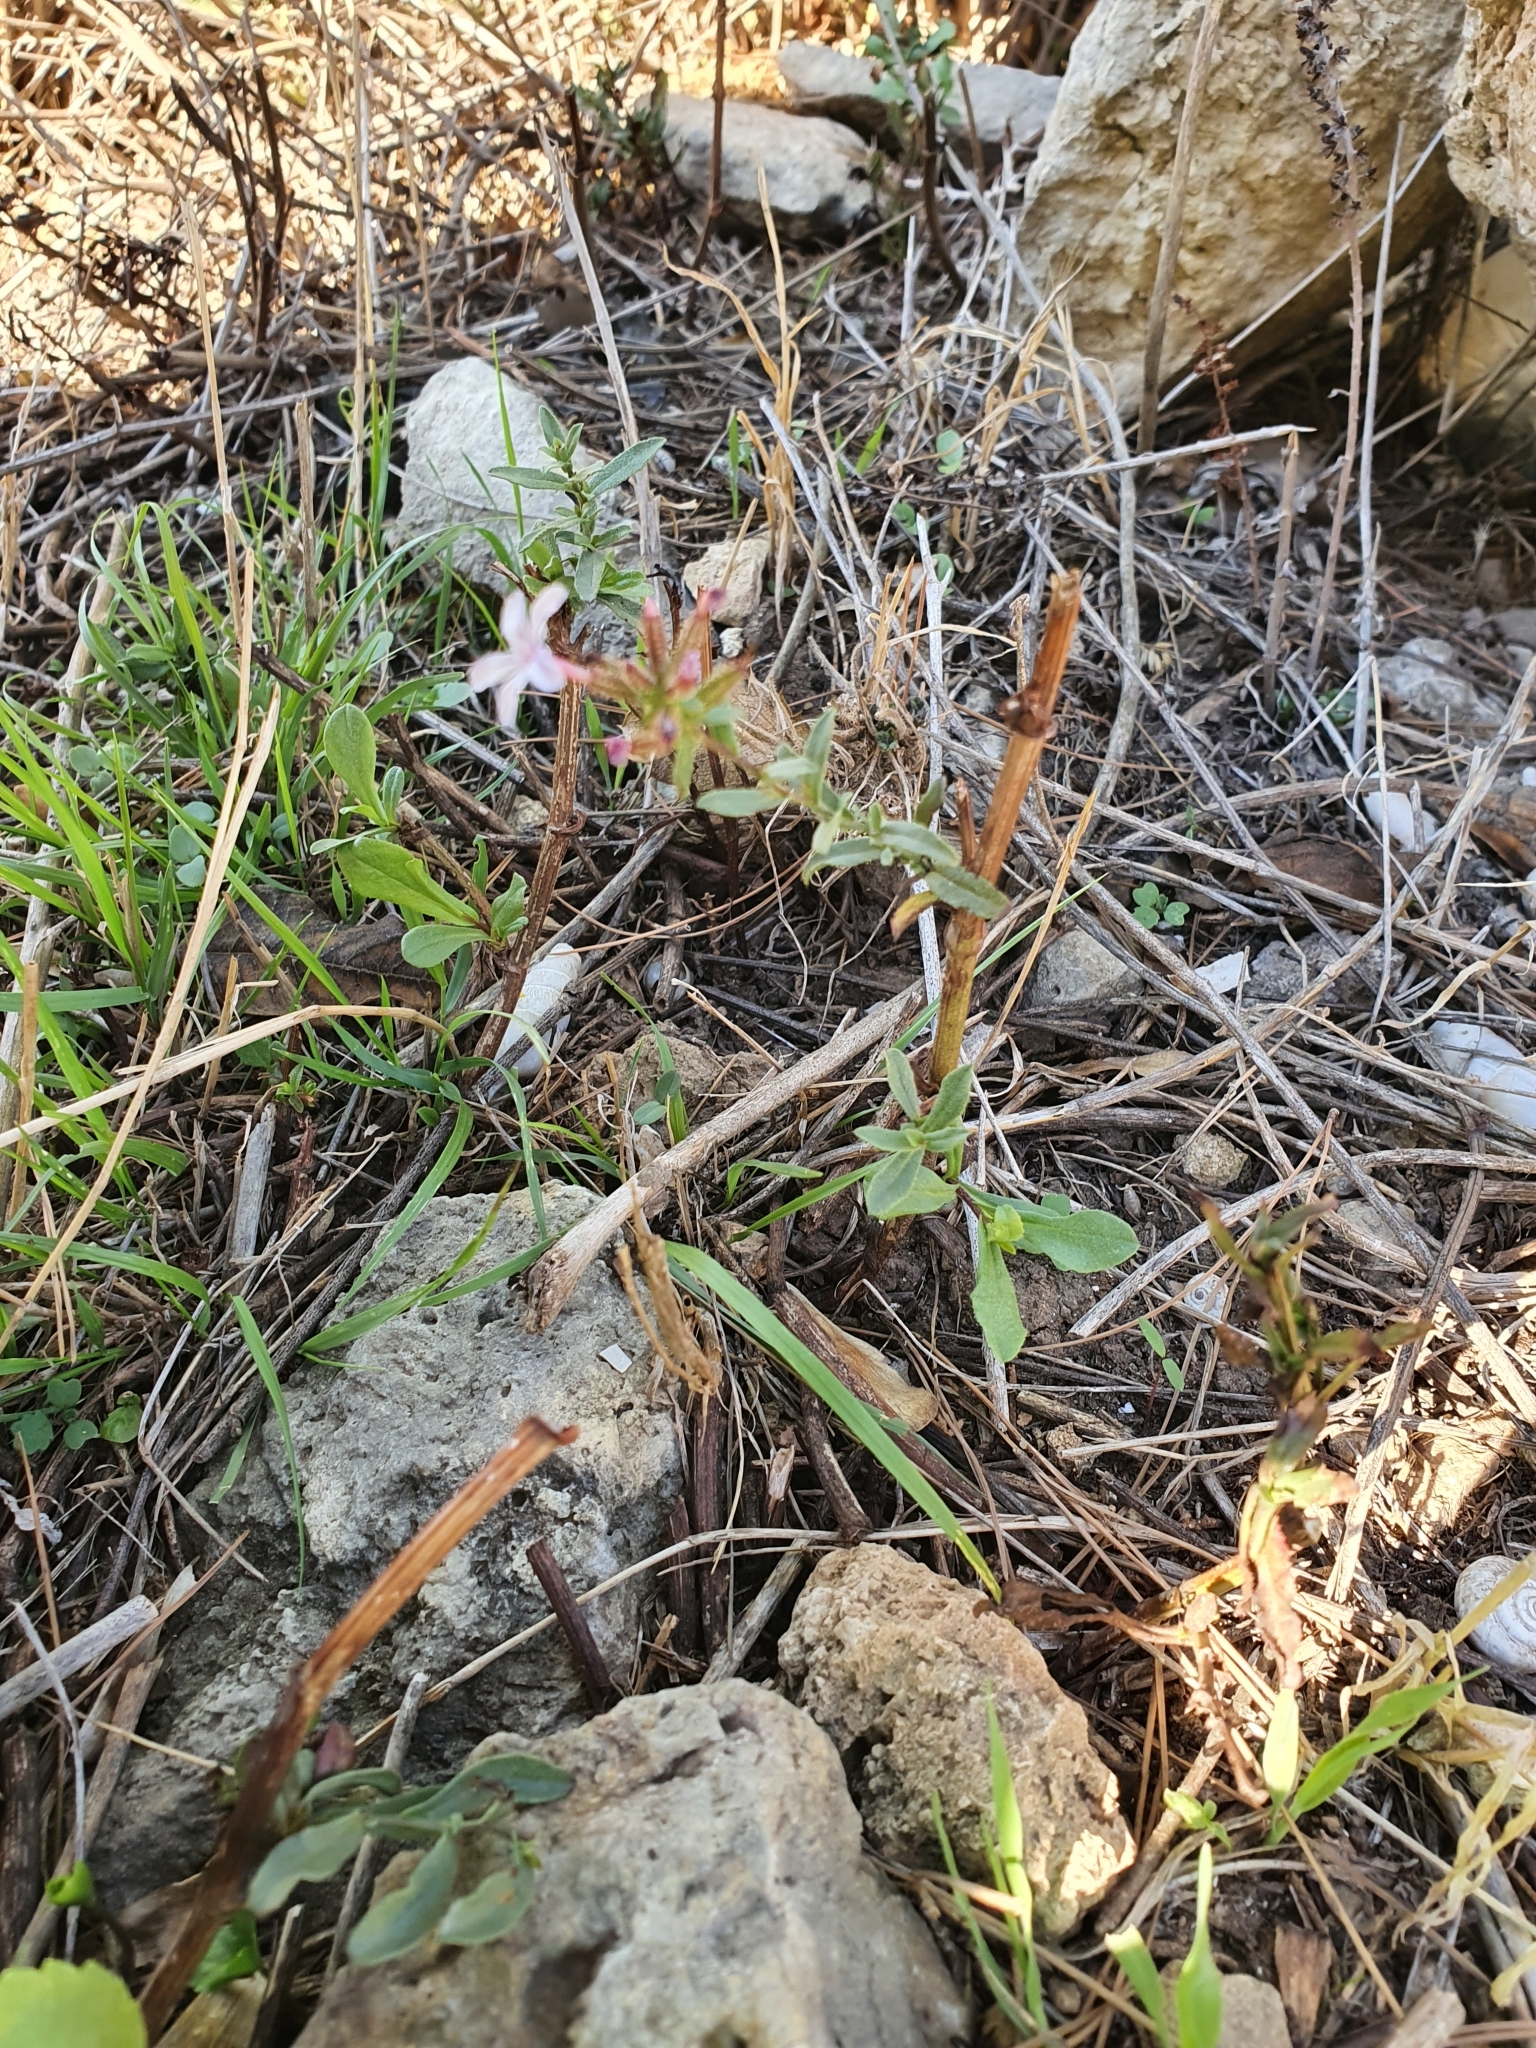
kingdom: Plantae
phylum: Tracheophyta
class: Magnoliopsida
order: Caryophyllales
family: Plumbaginaceae
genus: Plumbago
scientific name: Plumbago europaea
